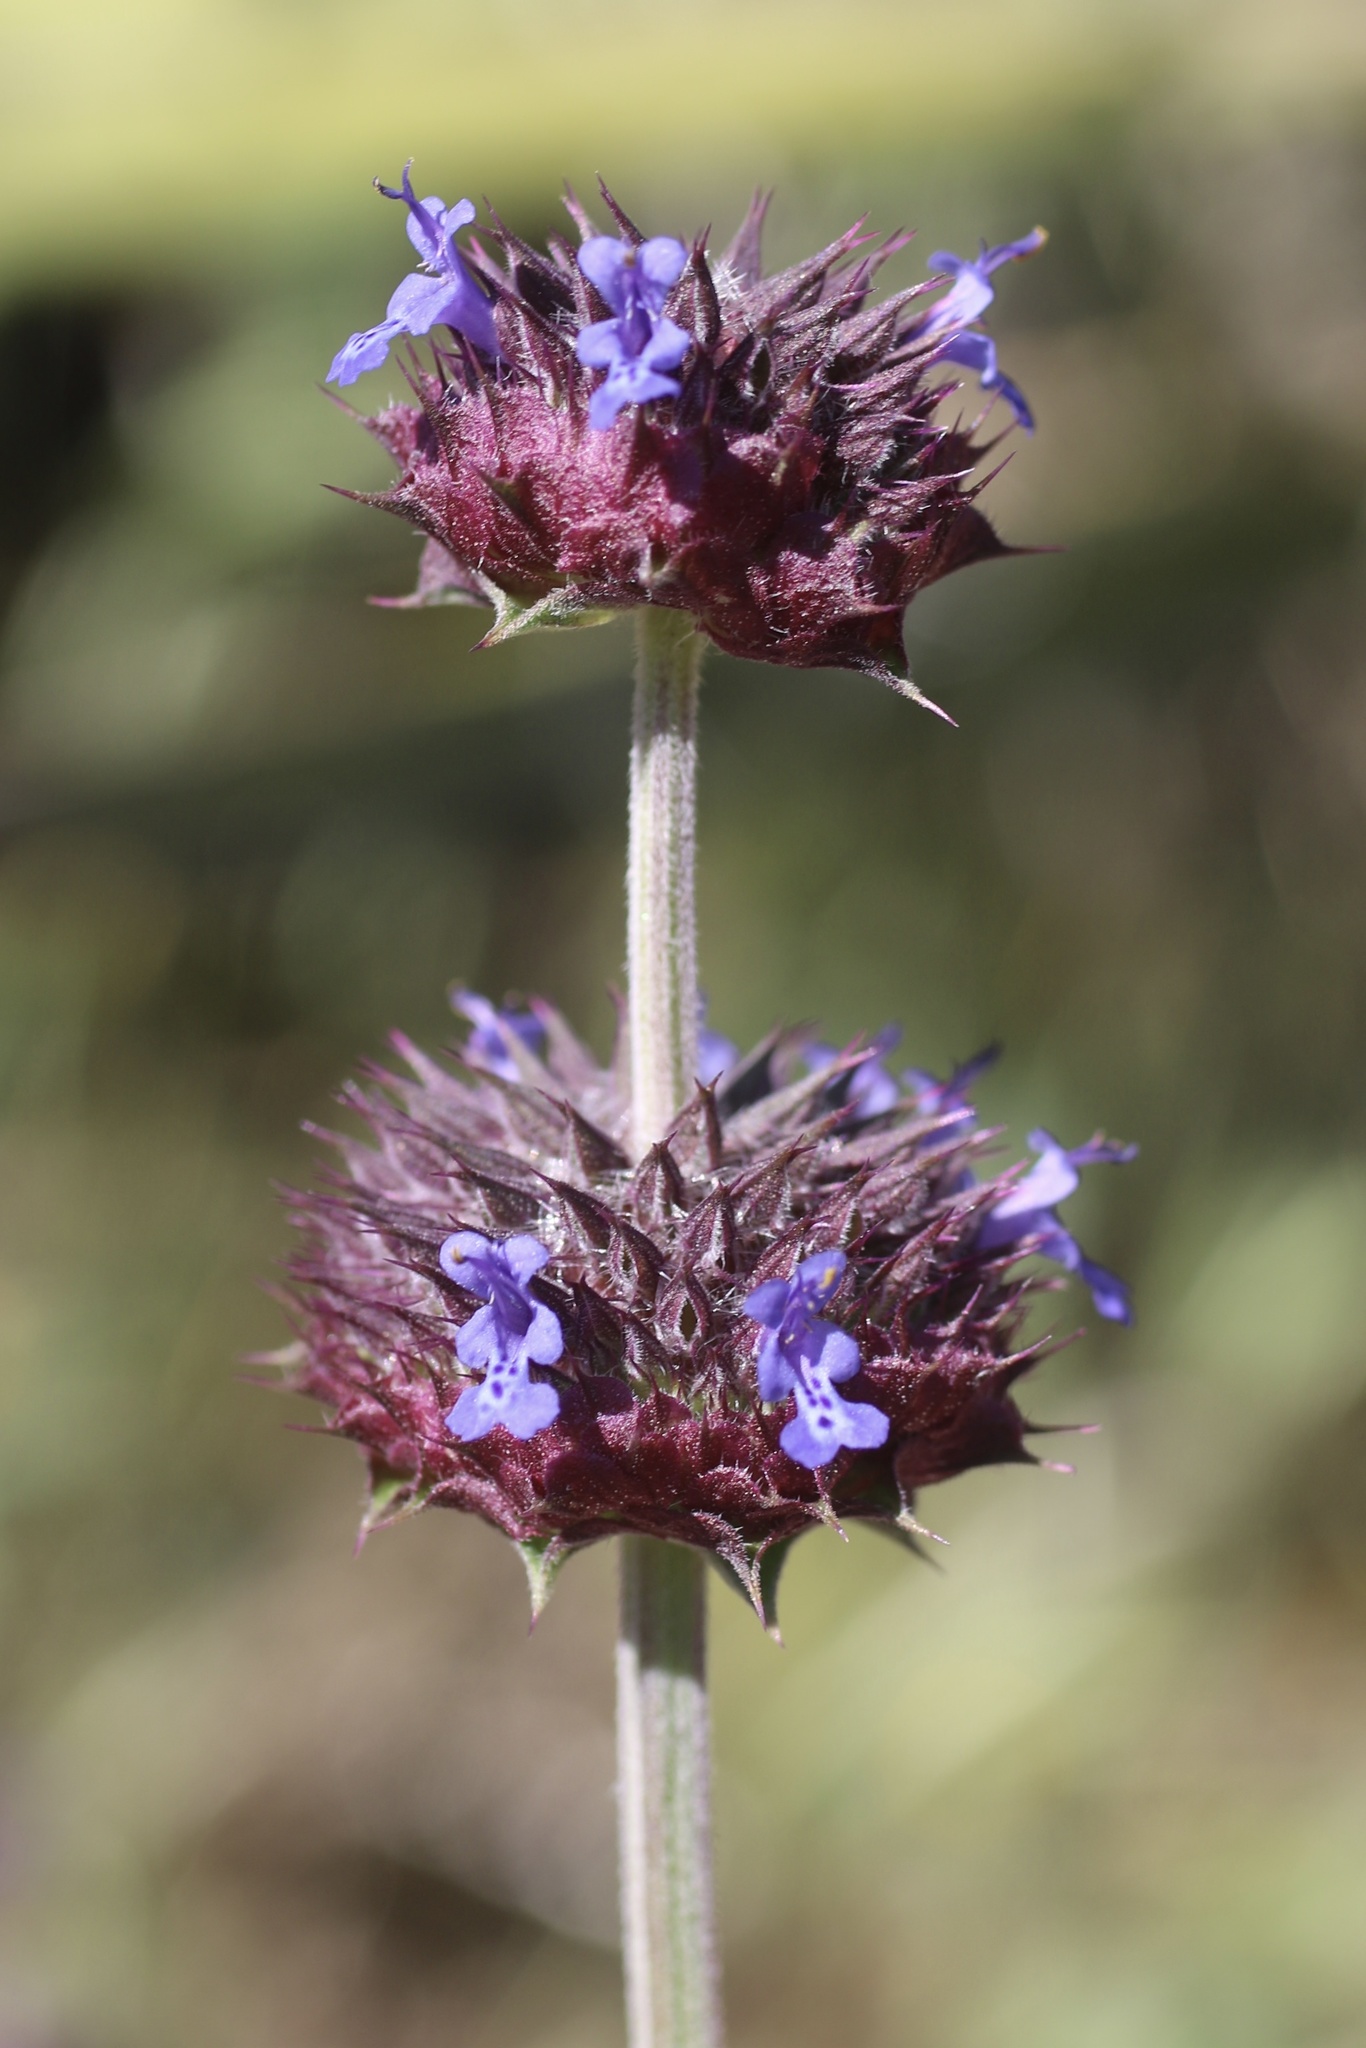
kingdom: Plantae
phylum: Tracheophyta
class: Magnoliopsida
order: Lamiales
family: Lamiaceae
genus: Salvia
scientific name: Salvia columbariae
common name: Chia
